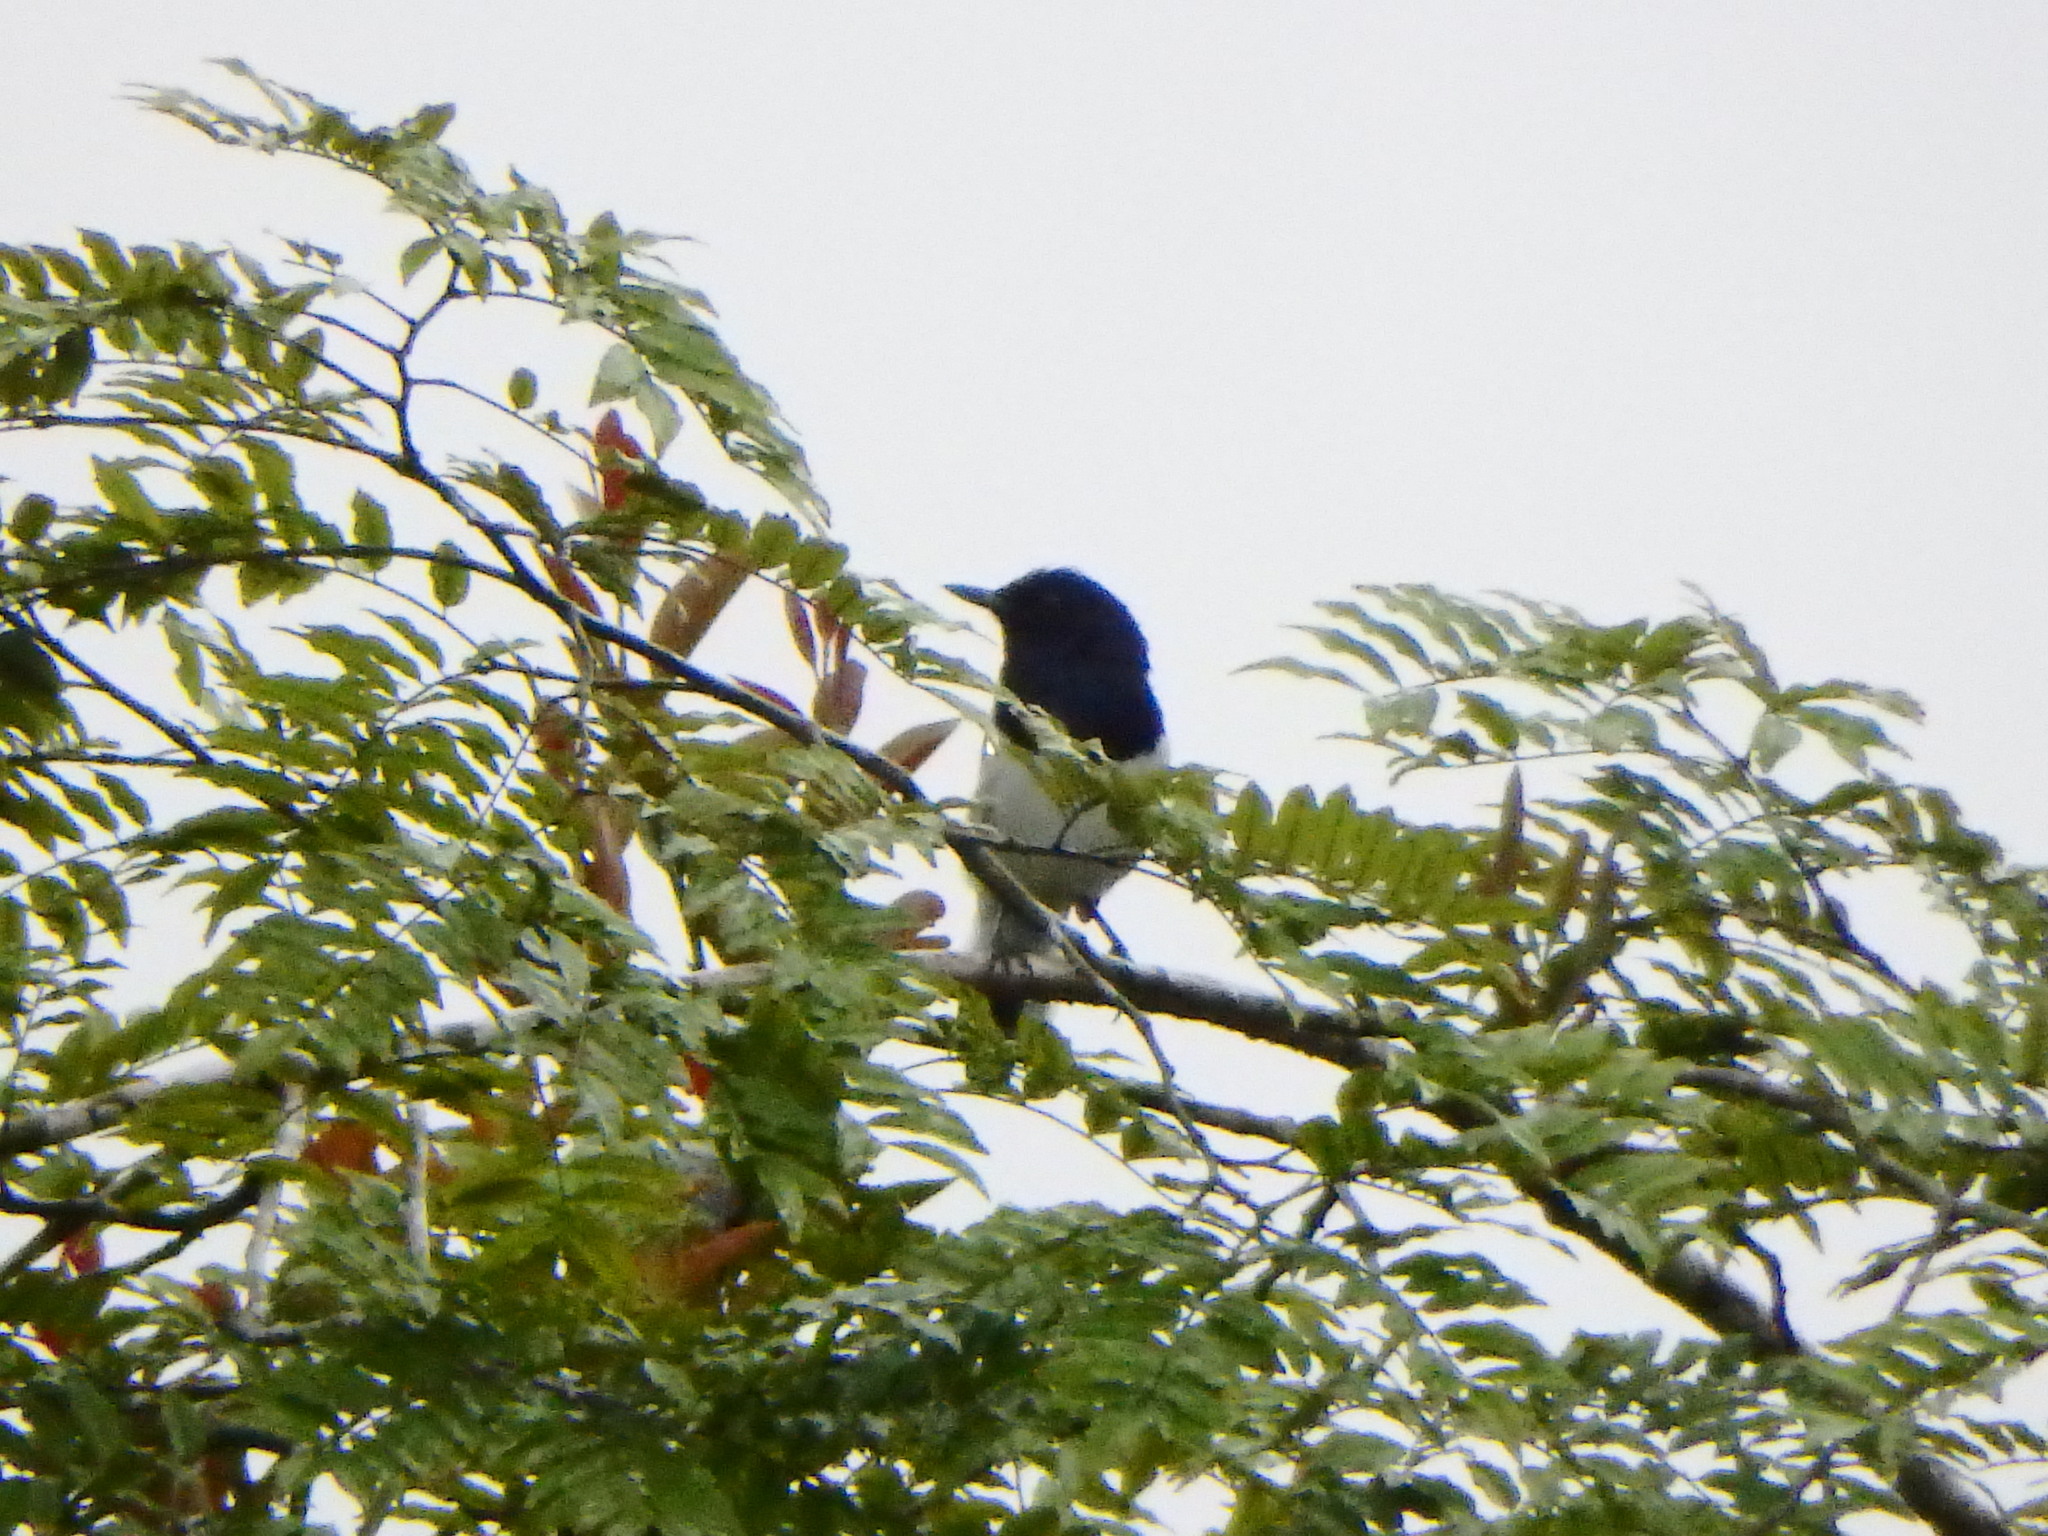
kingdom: Animalia
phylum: Chordata
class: Aves
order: Passeriformes
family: Muscicapidae
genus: Copsychus
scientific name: Copsychus saularis
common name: Oriental magpie-robin
